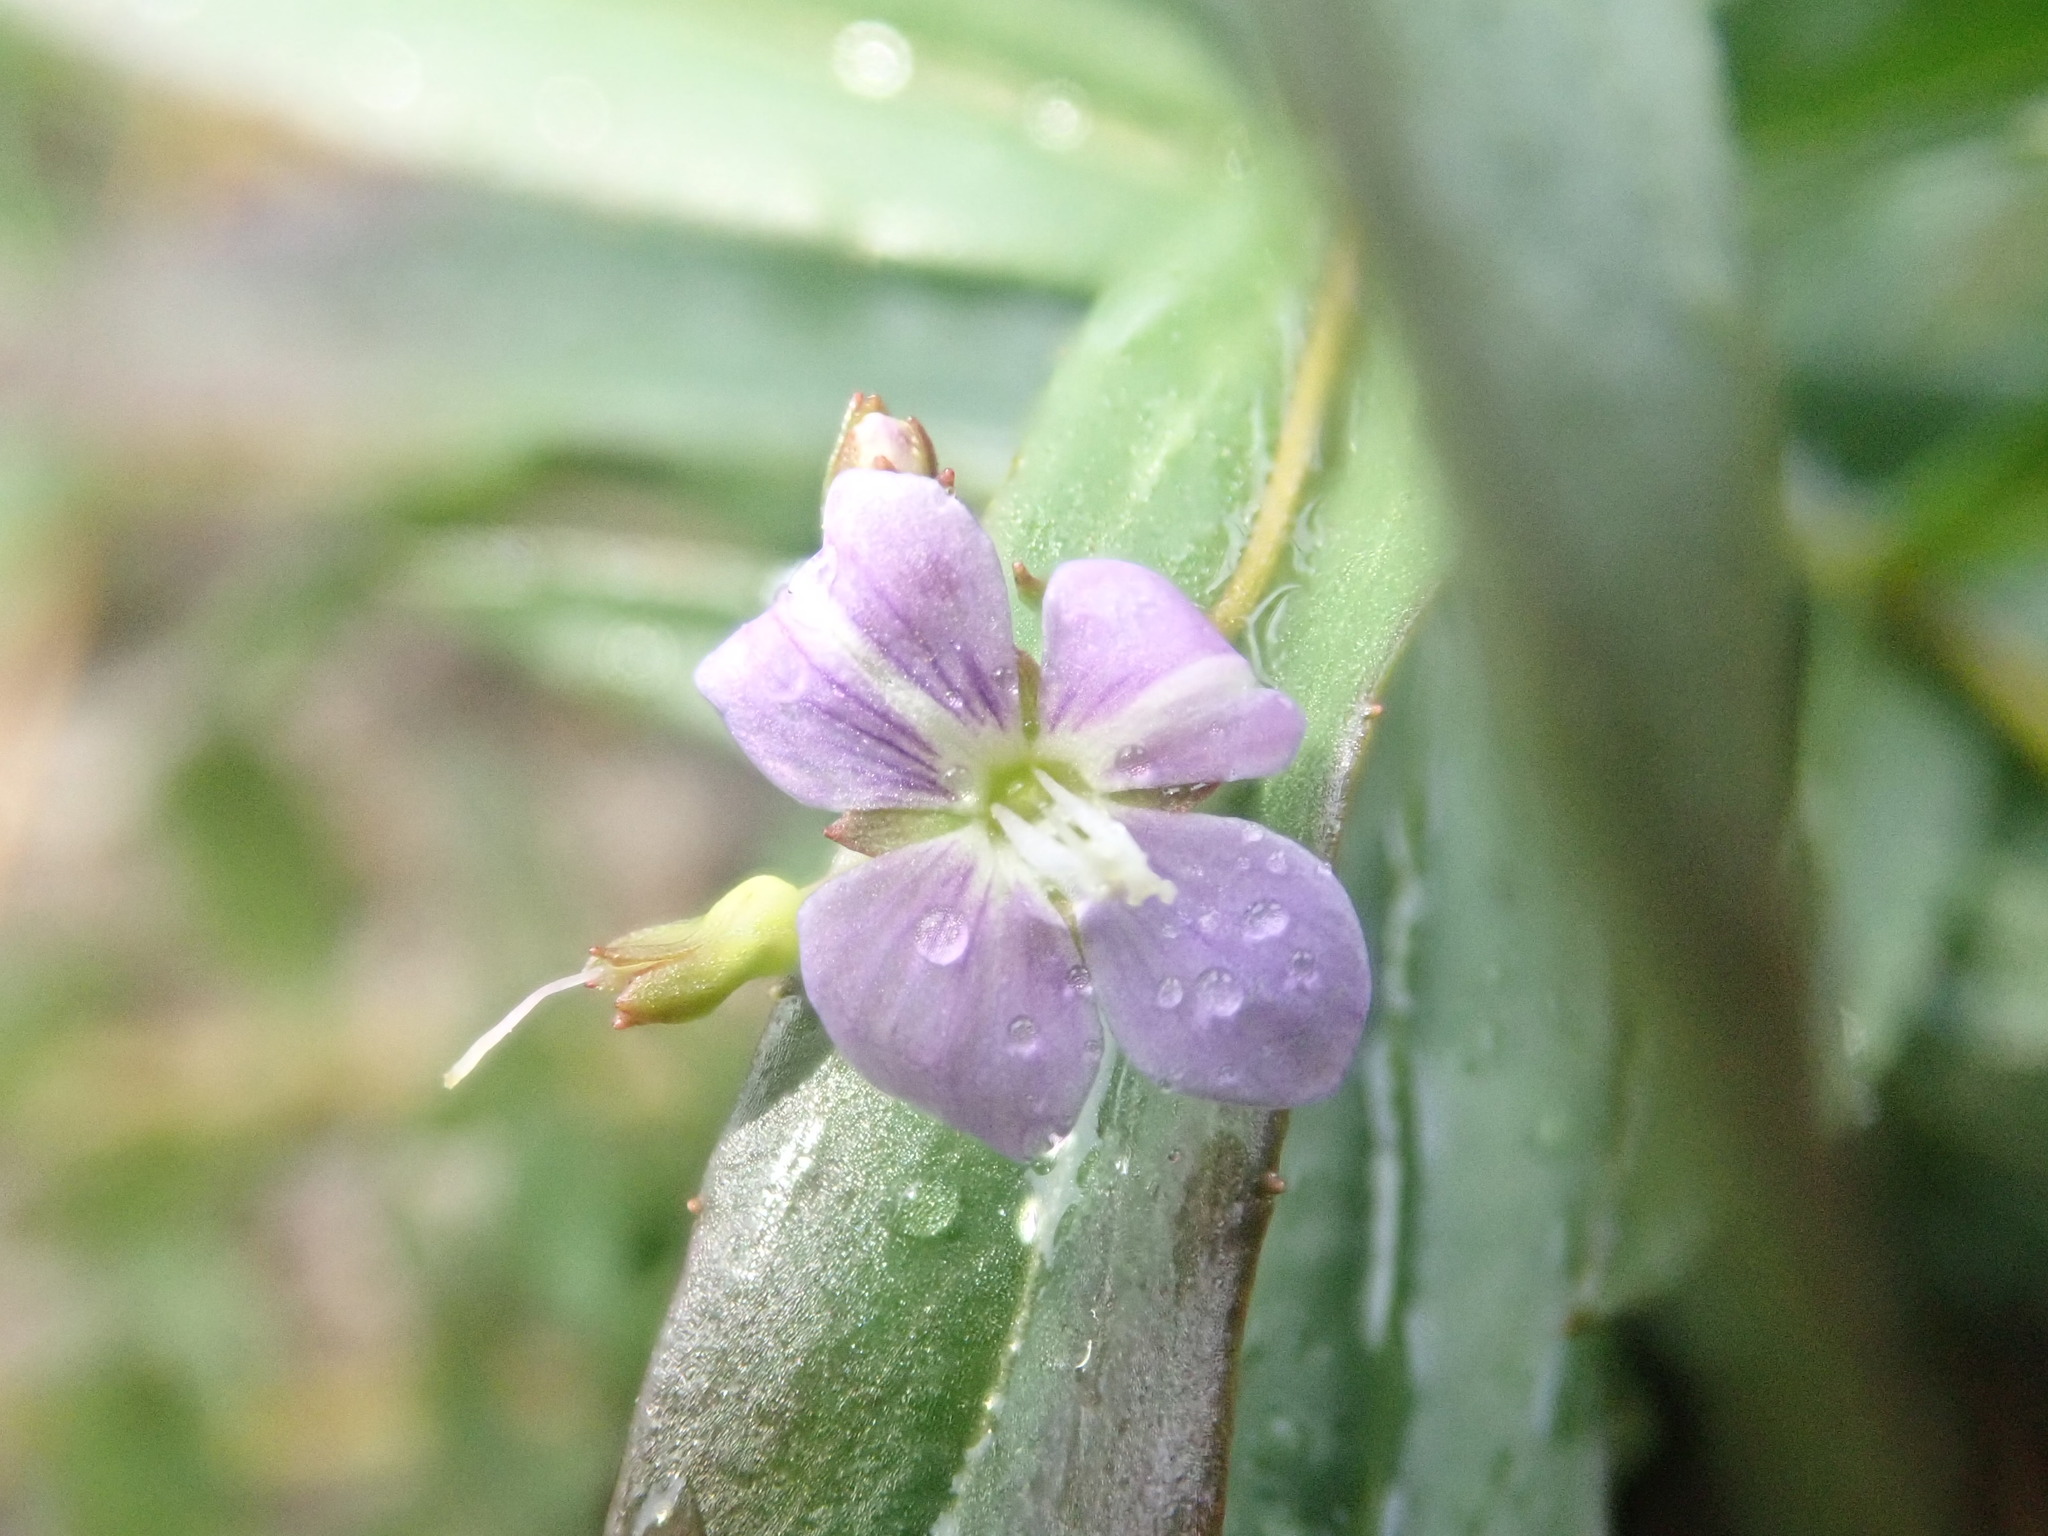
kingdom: Plantae
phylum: Tracheophyta
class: Magnoliopsida
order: Lamiales
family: Plantaginaceae
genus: Veronica
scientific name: Veronica scutellata
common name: Marsh speedwell
